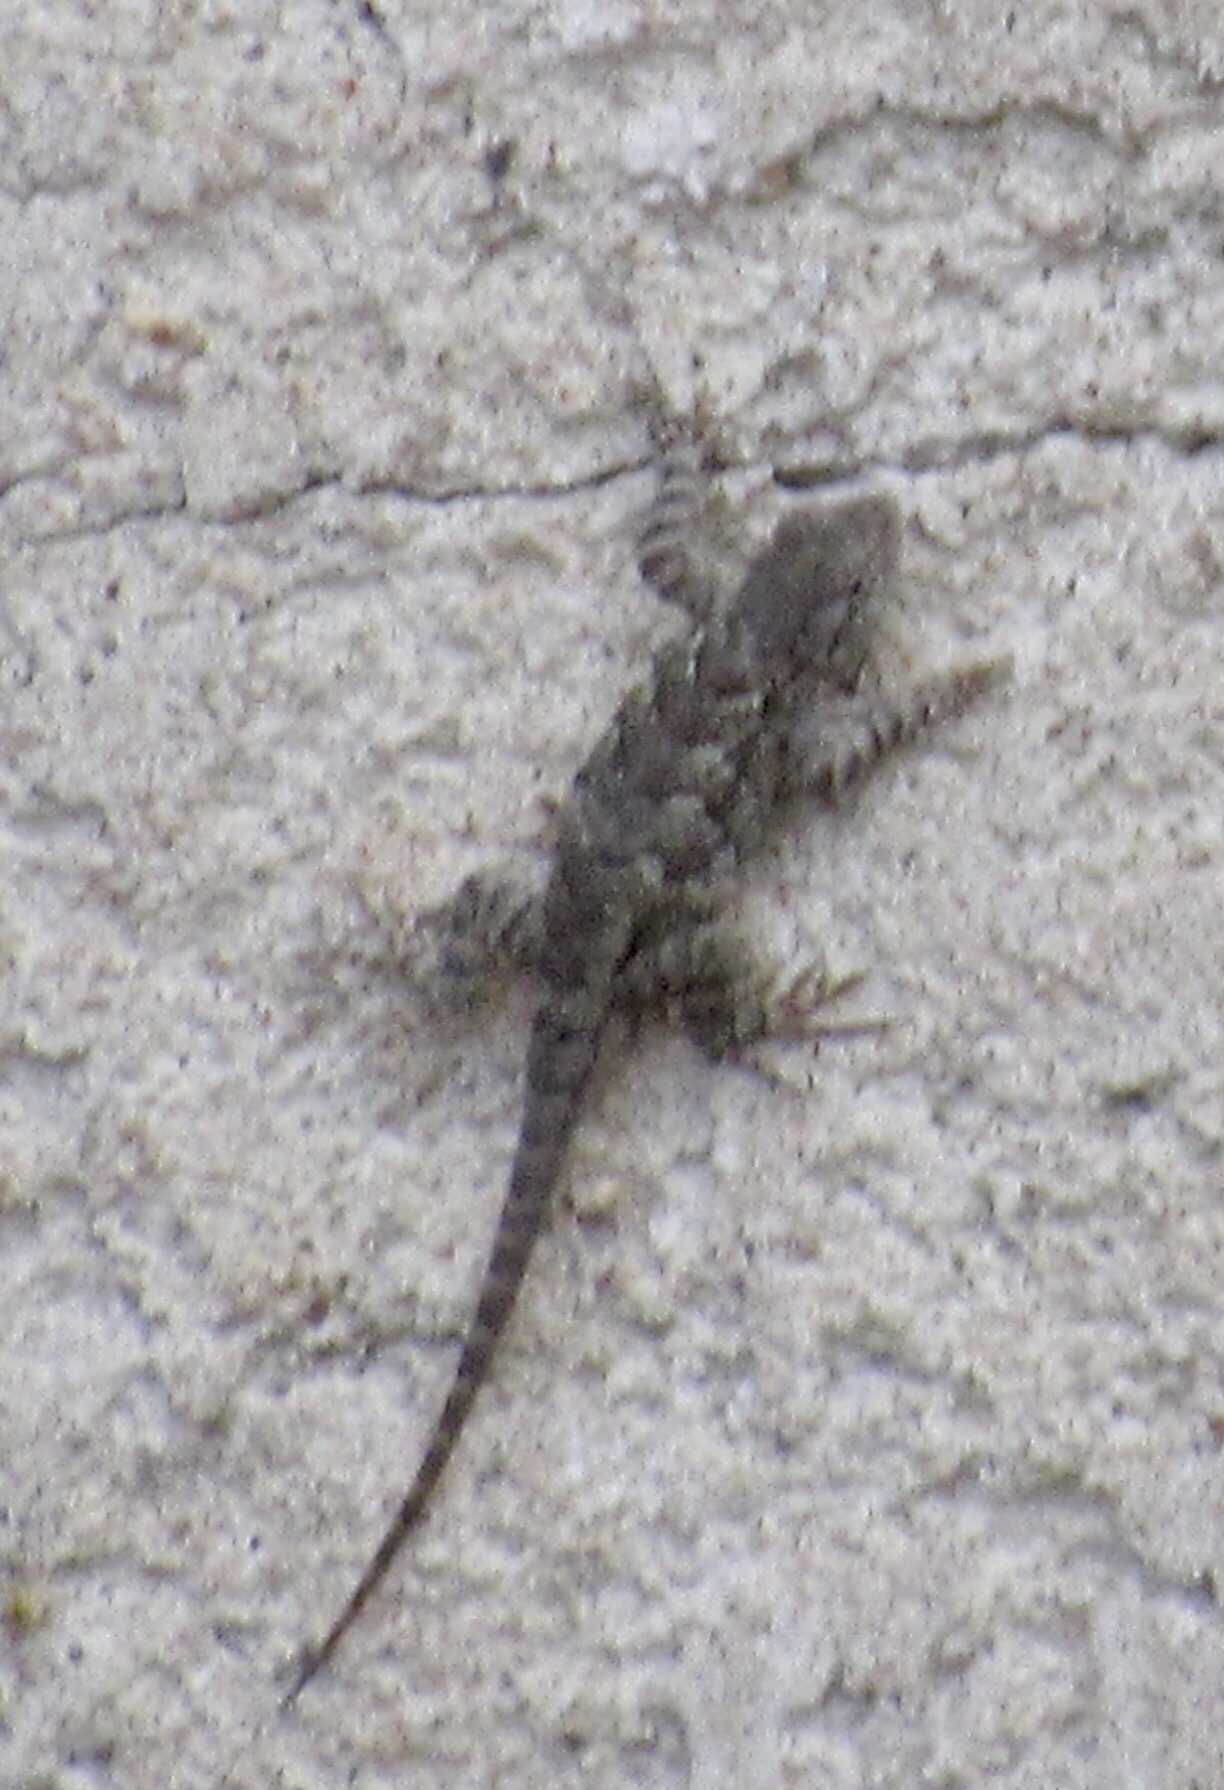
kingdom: Animalia
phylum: Chordata
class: Squamata
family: Phrynosomatidae
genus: Sceloporus
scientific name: Sceloporus cowlesi
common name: White sands prairie lizard
